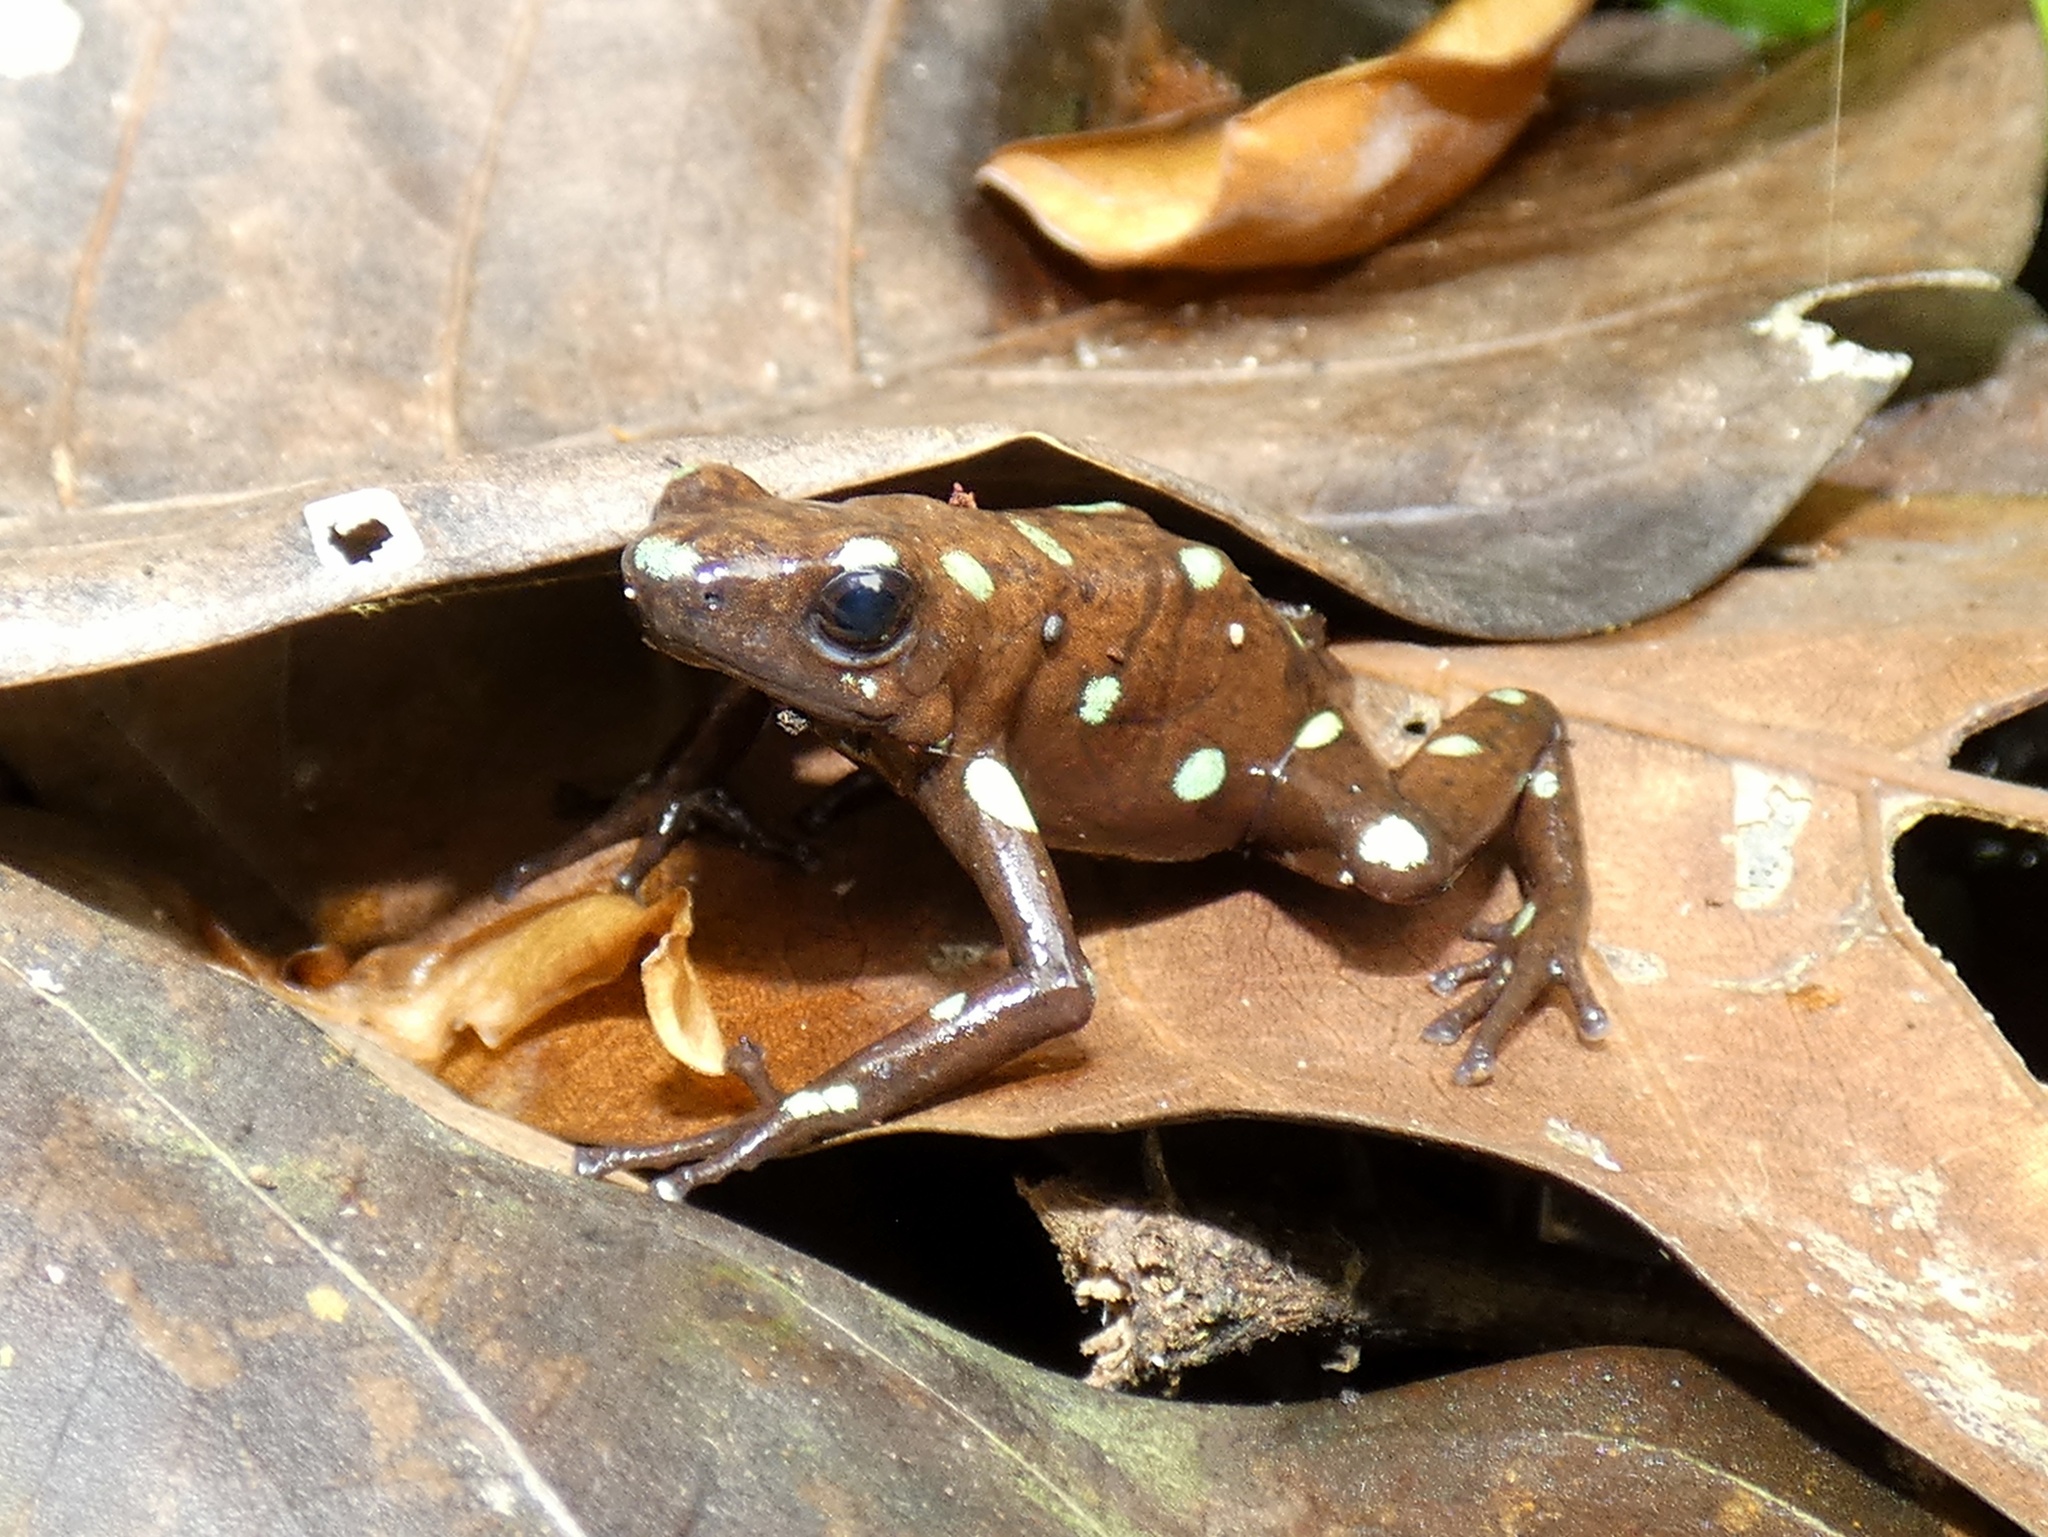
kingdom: Animalia
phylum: Chordata
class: Amphibia
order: Anura
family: Dendrobatidae
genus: Dendrobates
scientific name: Dendrobates auratus
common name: Green and black poison dart frog
